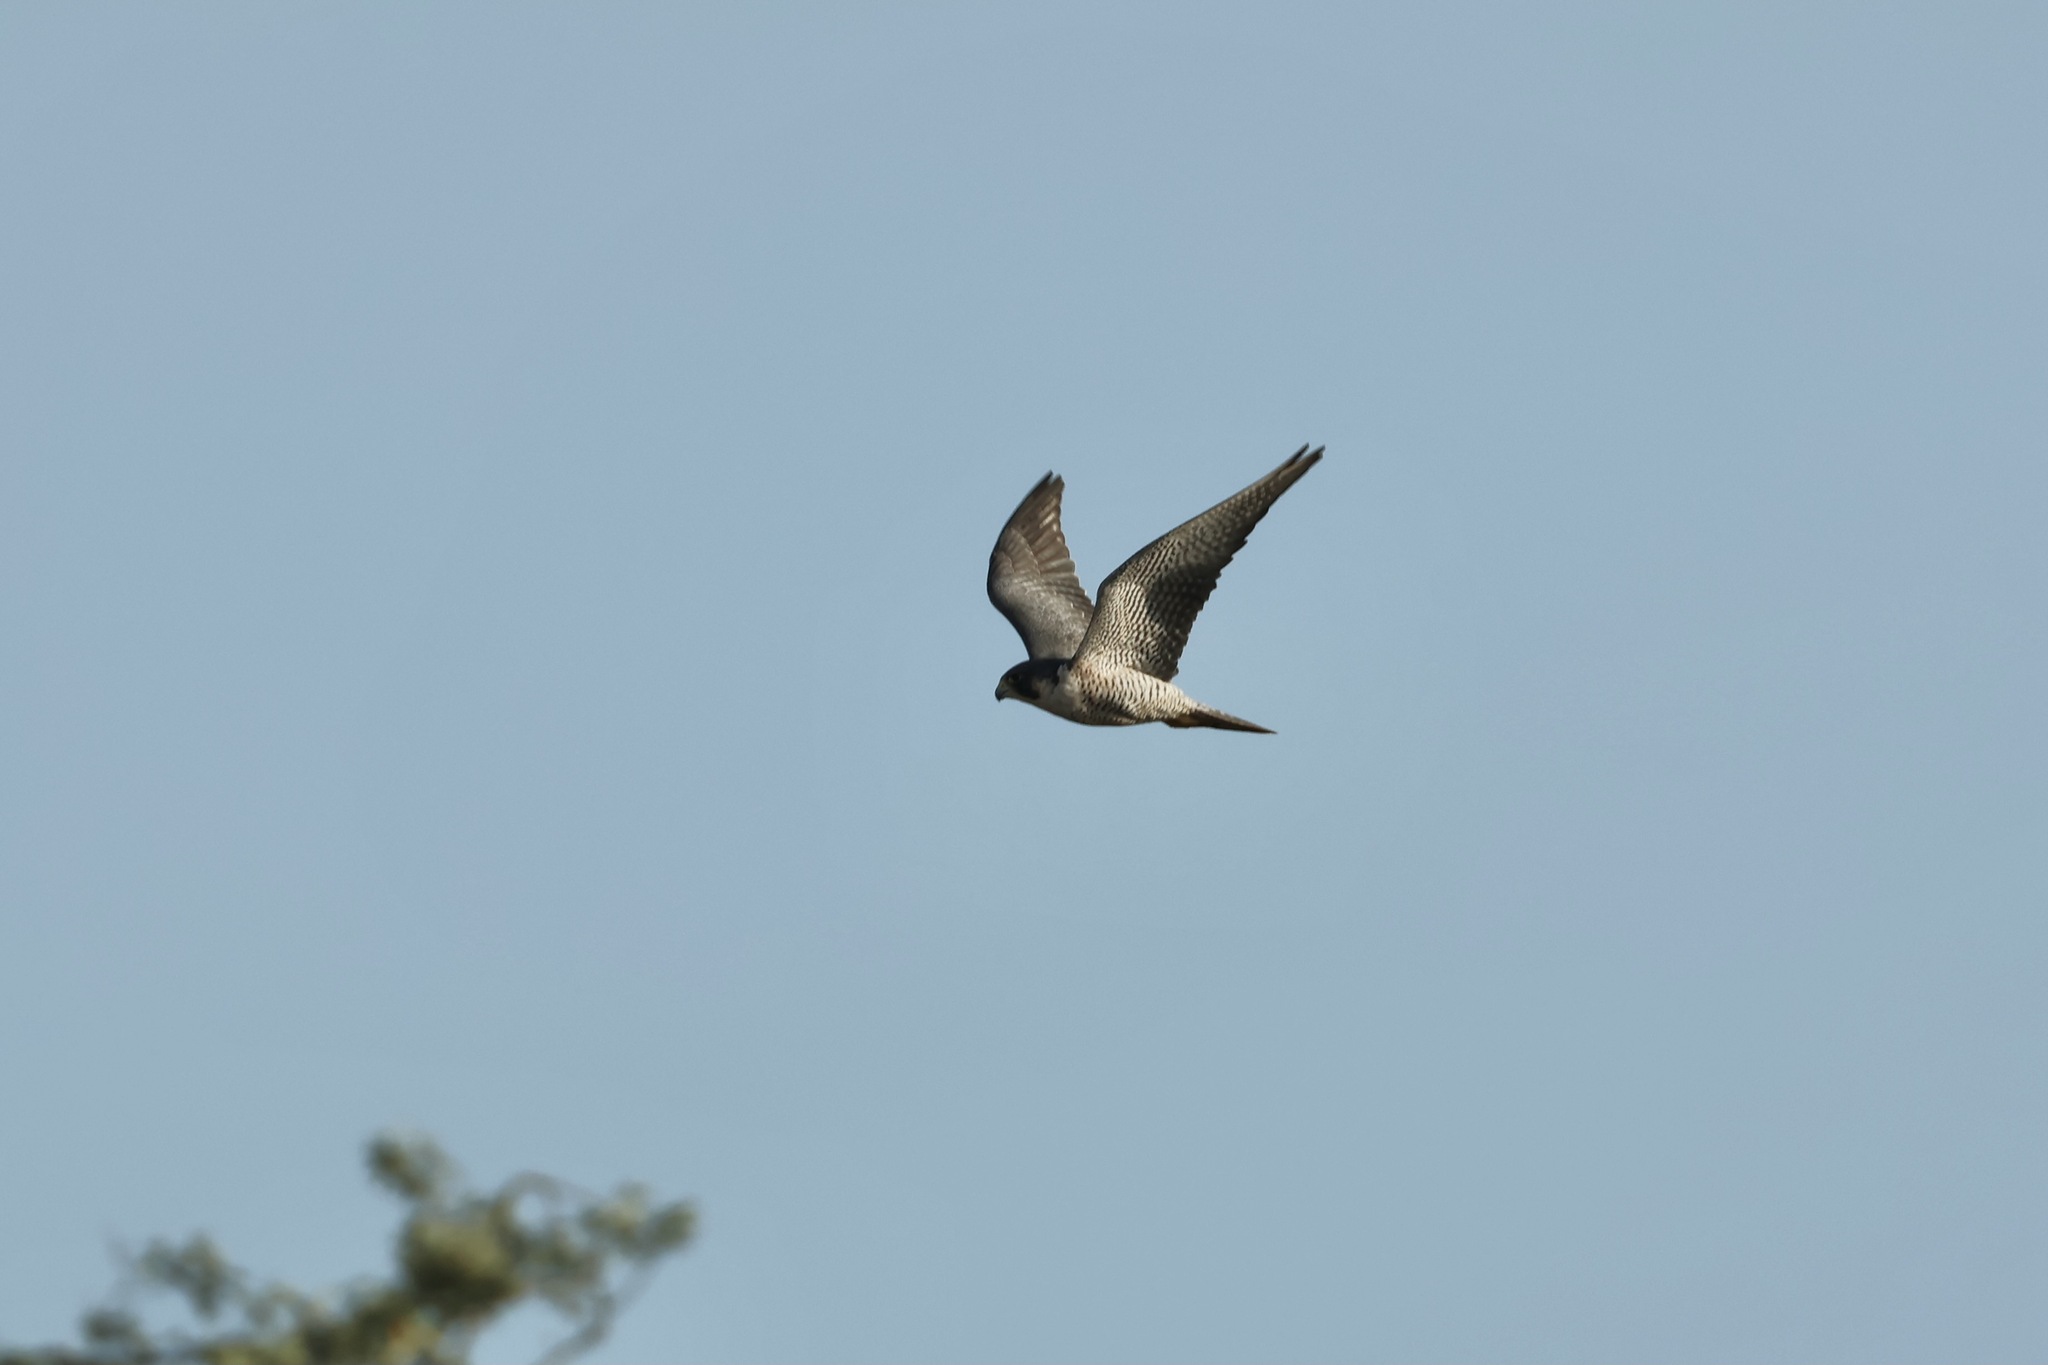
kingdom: Animalia
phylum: Chordata
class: Aves
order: Falconiformes
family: Falconidae
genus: Falco
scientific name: Falco peregrinus
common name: Peregrine falcon
